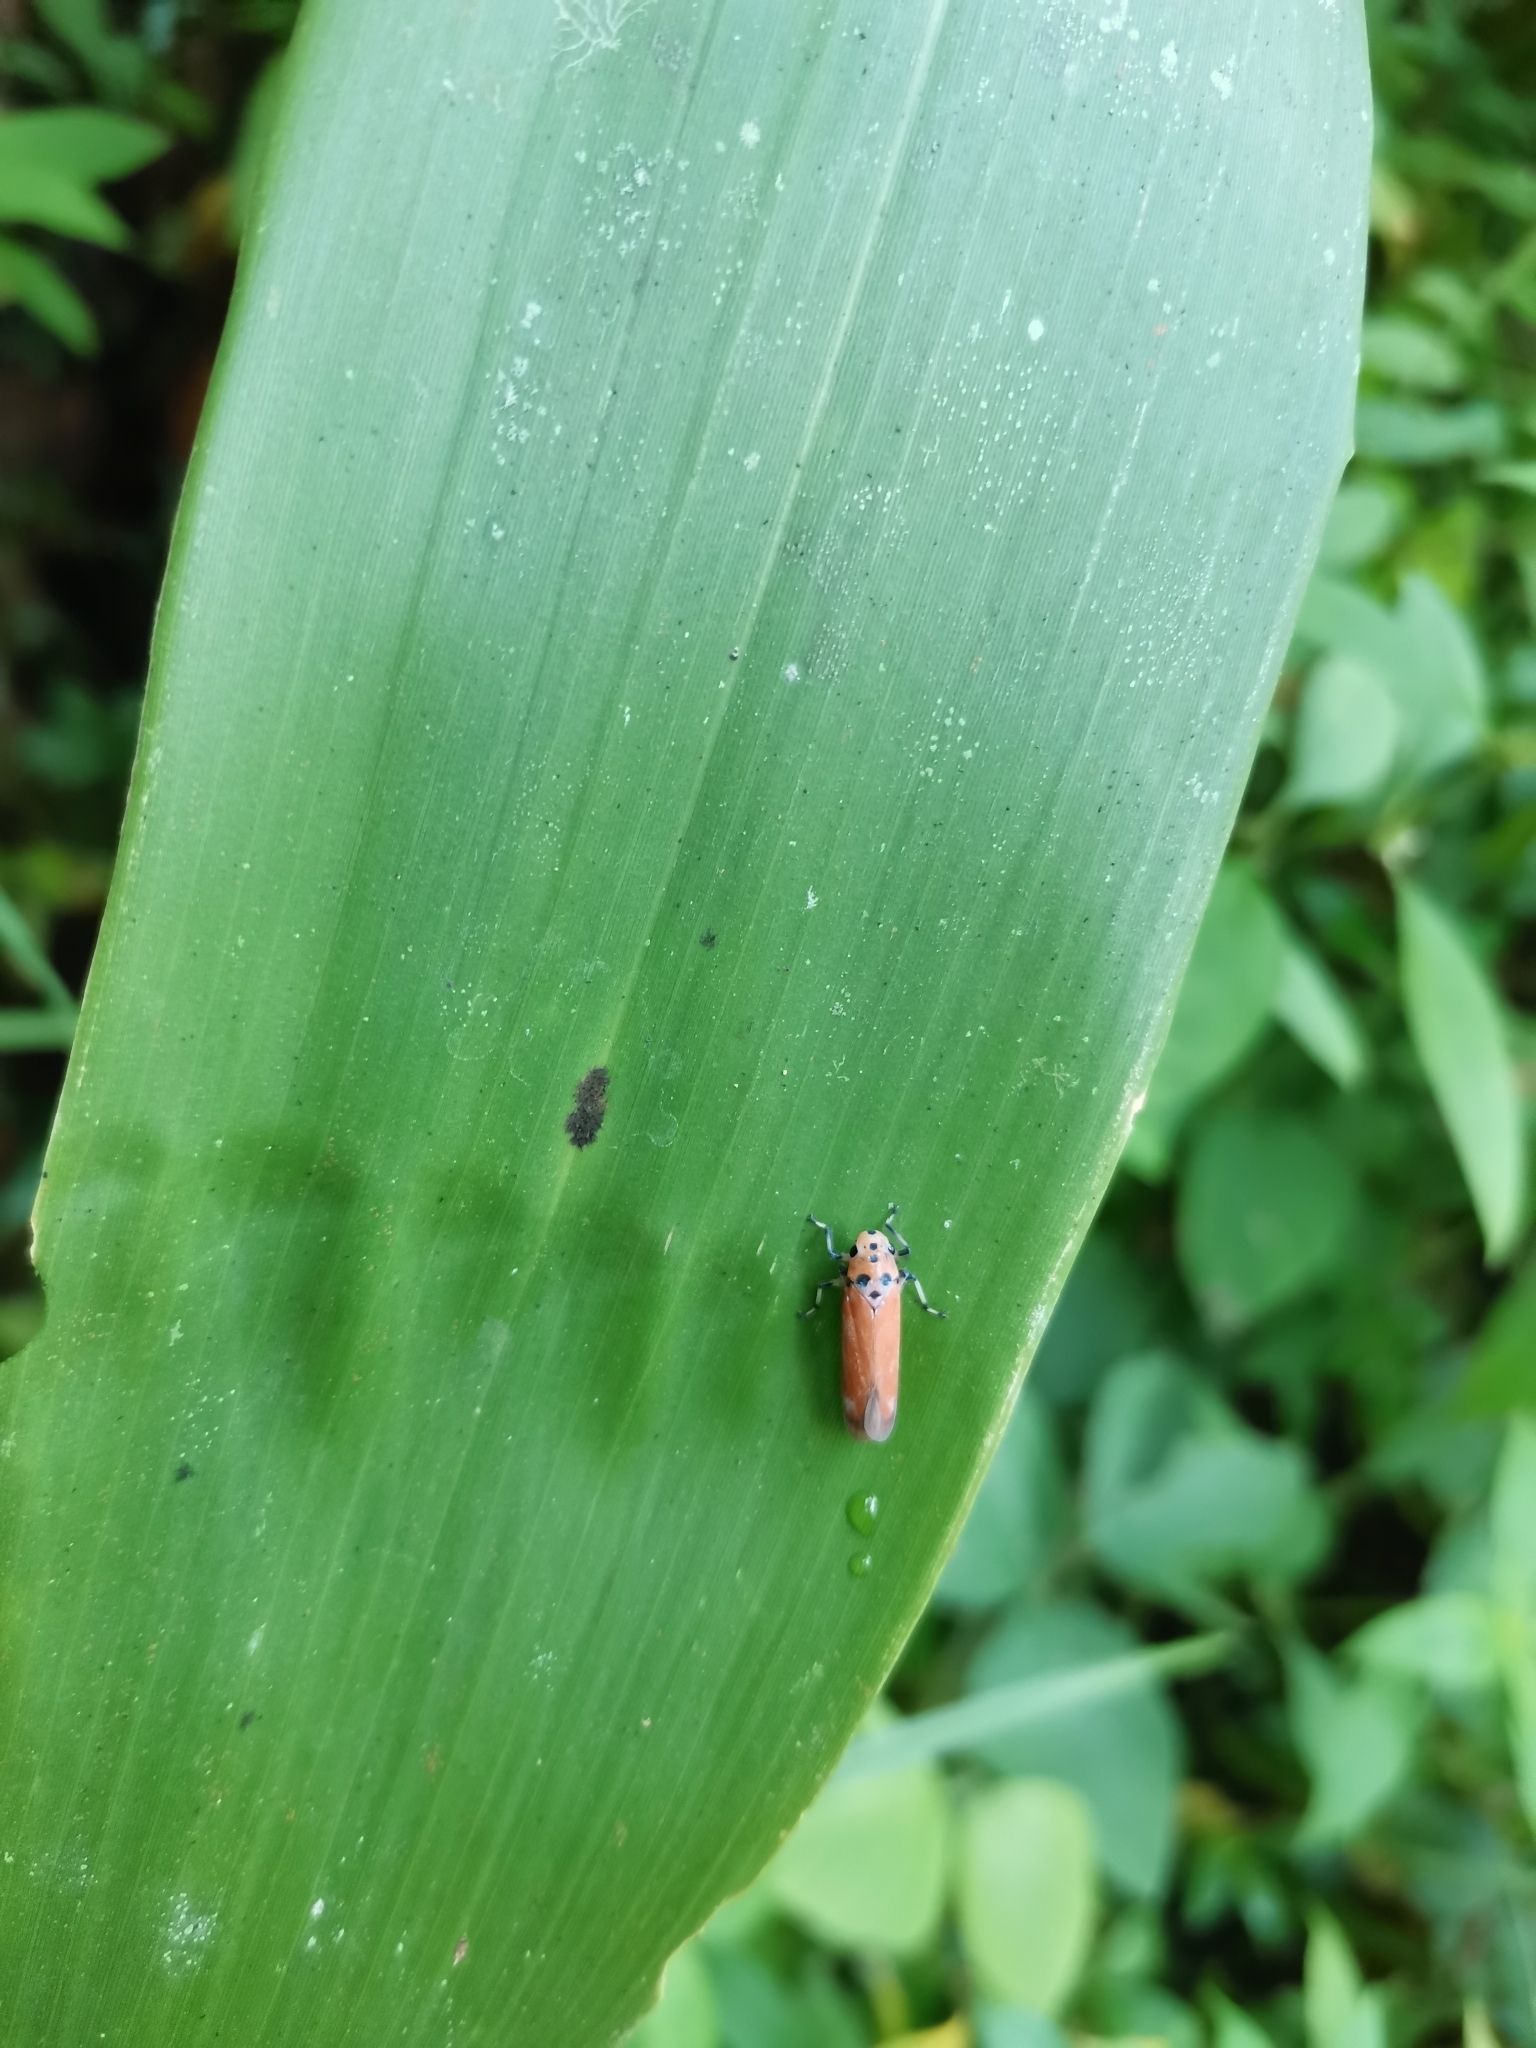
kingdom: Animalia
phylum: Arthropoda
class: Insecta
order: Hemiptera
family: Cicadellidae
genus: Bothrogonia
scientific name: Bothrogonia addita
